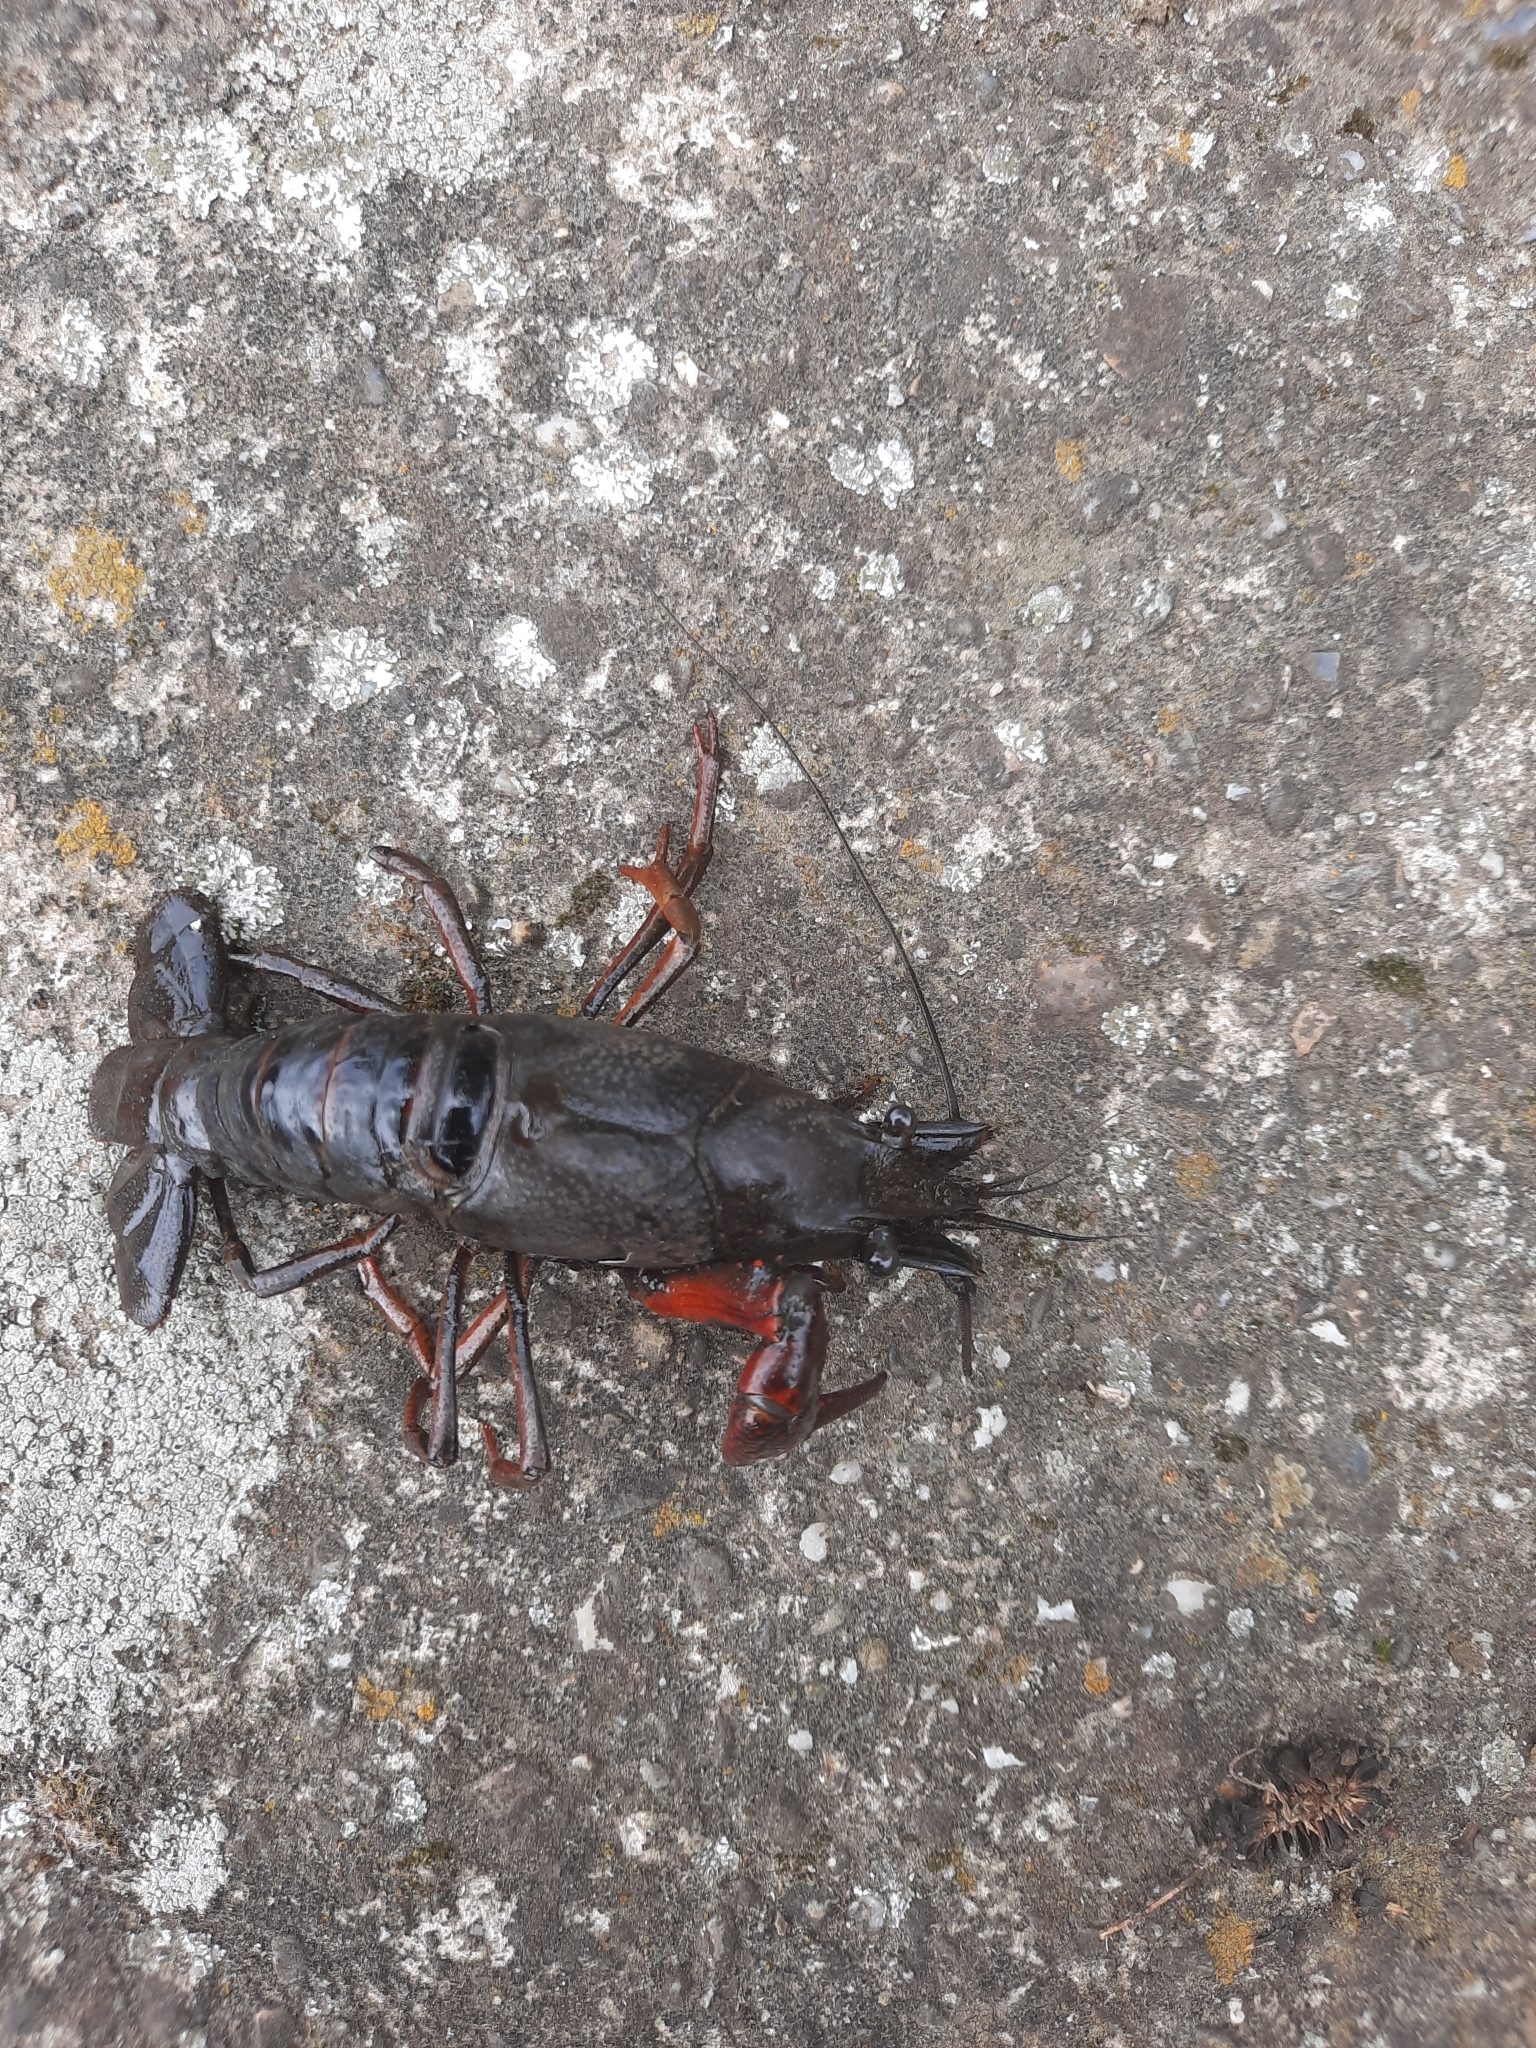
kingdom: Animalia
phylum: Arthropoda
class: Malacostraca
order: Decapoda
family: Cambaridae
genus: Procambarus
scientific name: Procambarus clarkii
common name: Red swamp crayfish
